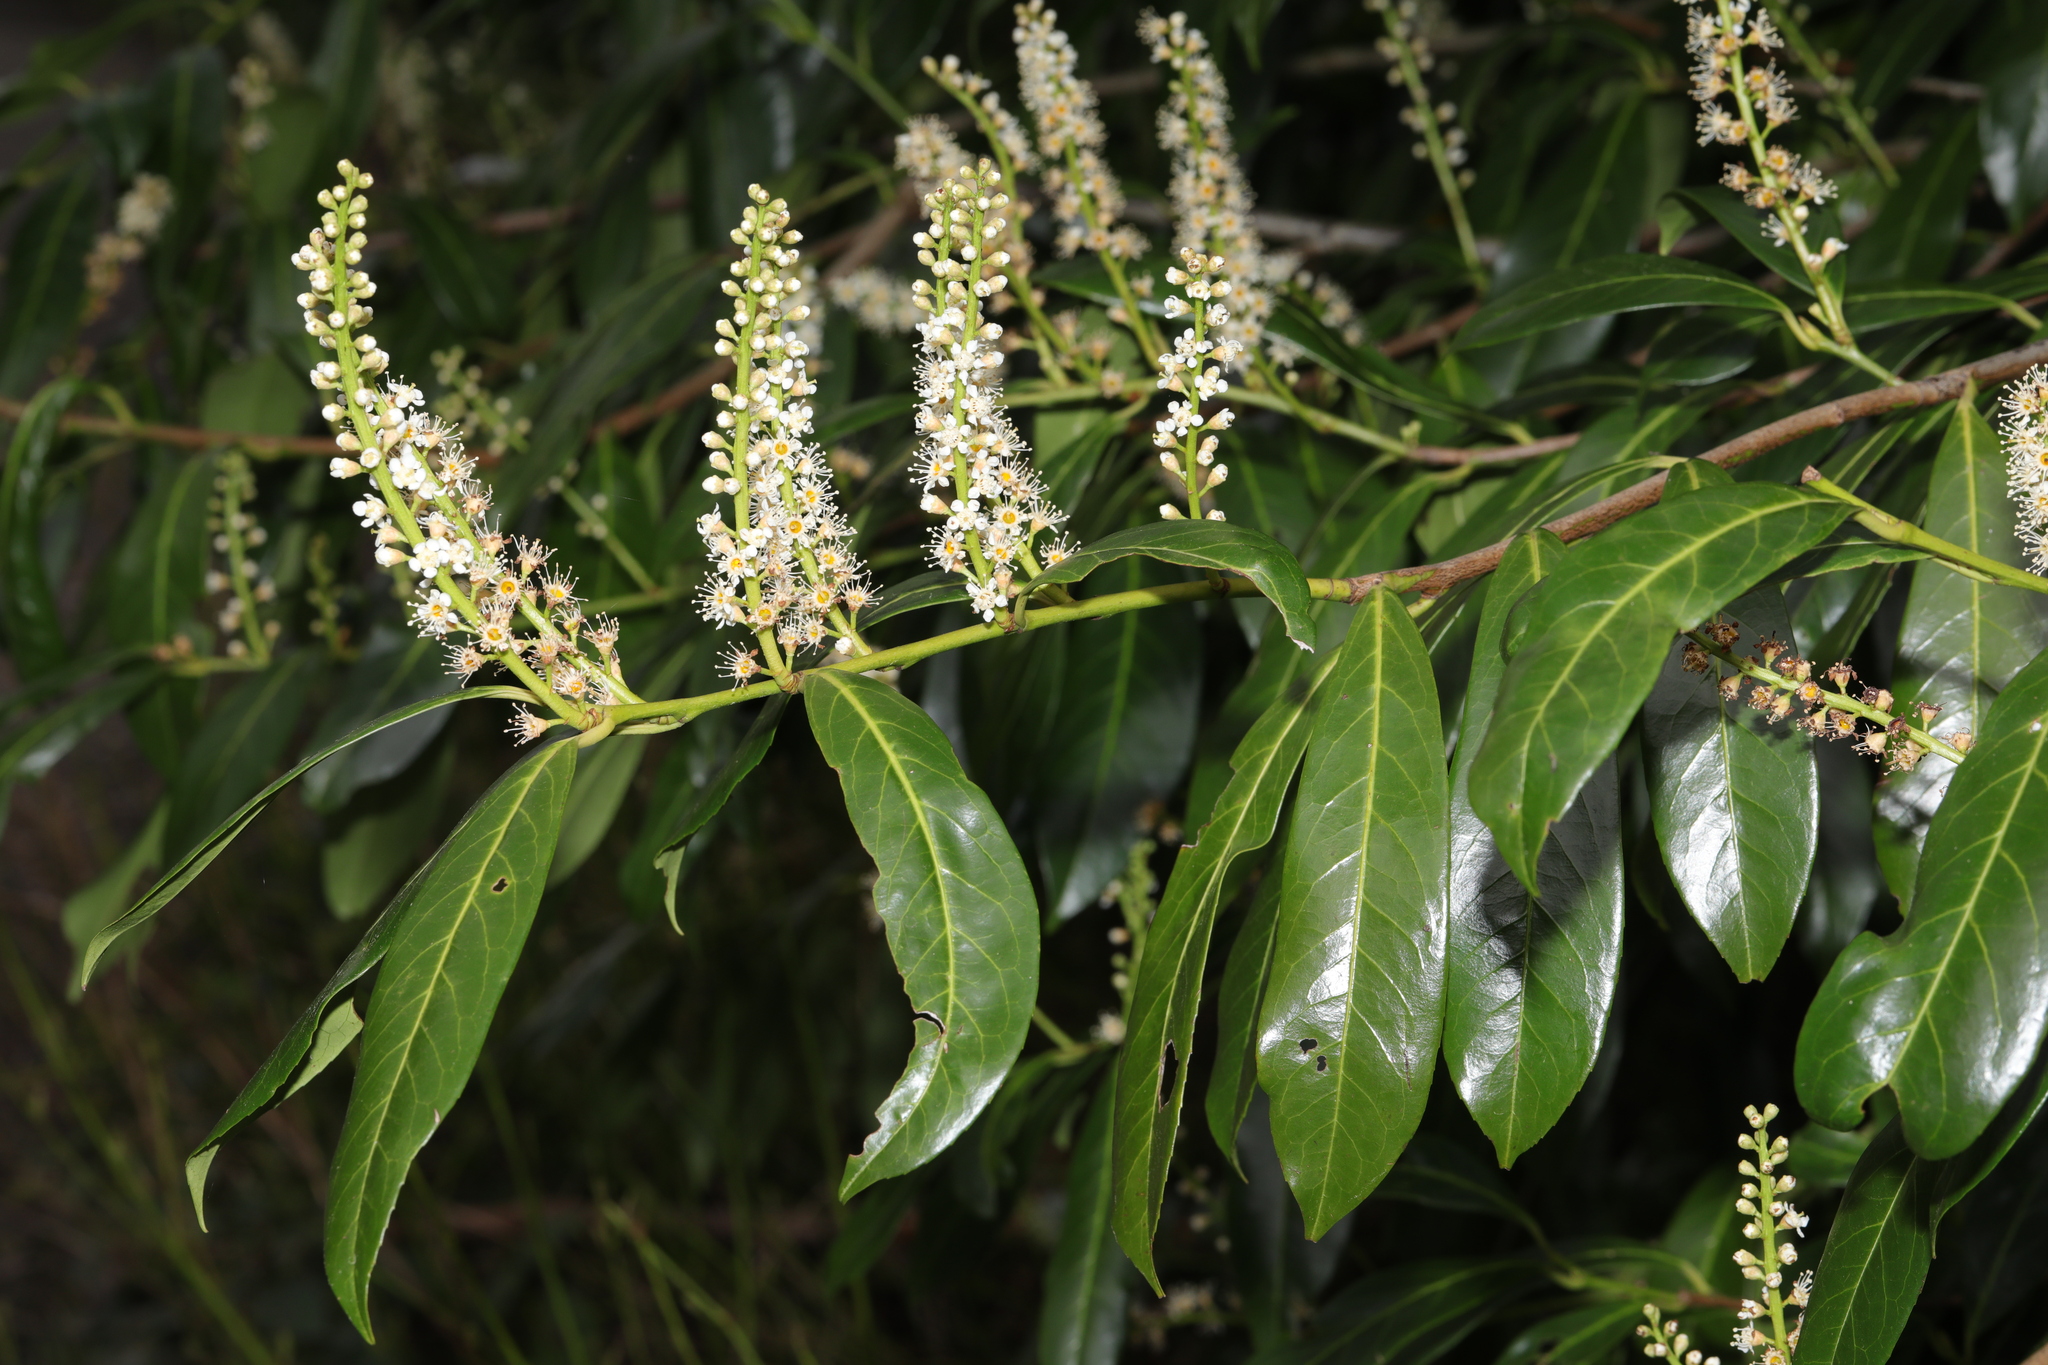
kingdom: Plantae
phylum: Tracheophyta
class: Magnoliopsida
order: Rosales
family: Rosaceae
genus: Prunus
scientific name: Prunus laurocerasus
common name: Cherry laurel
